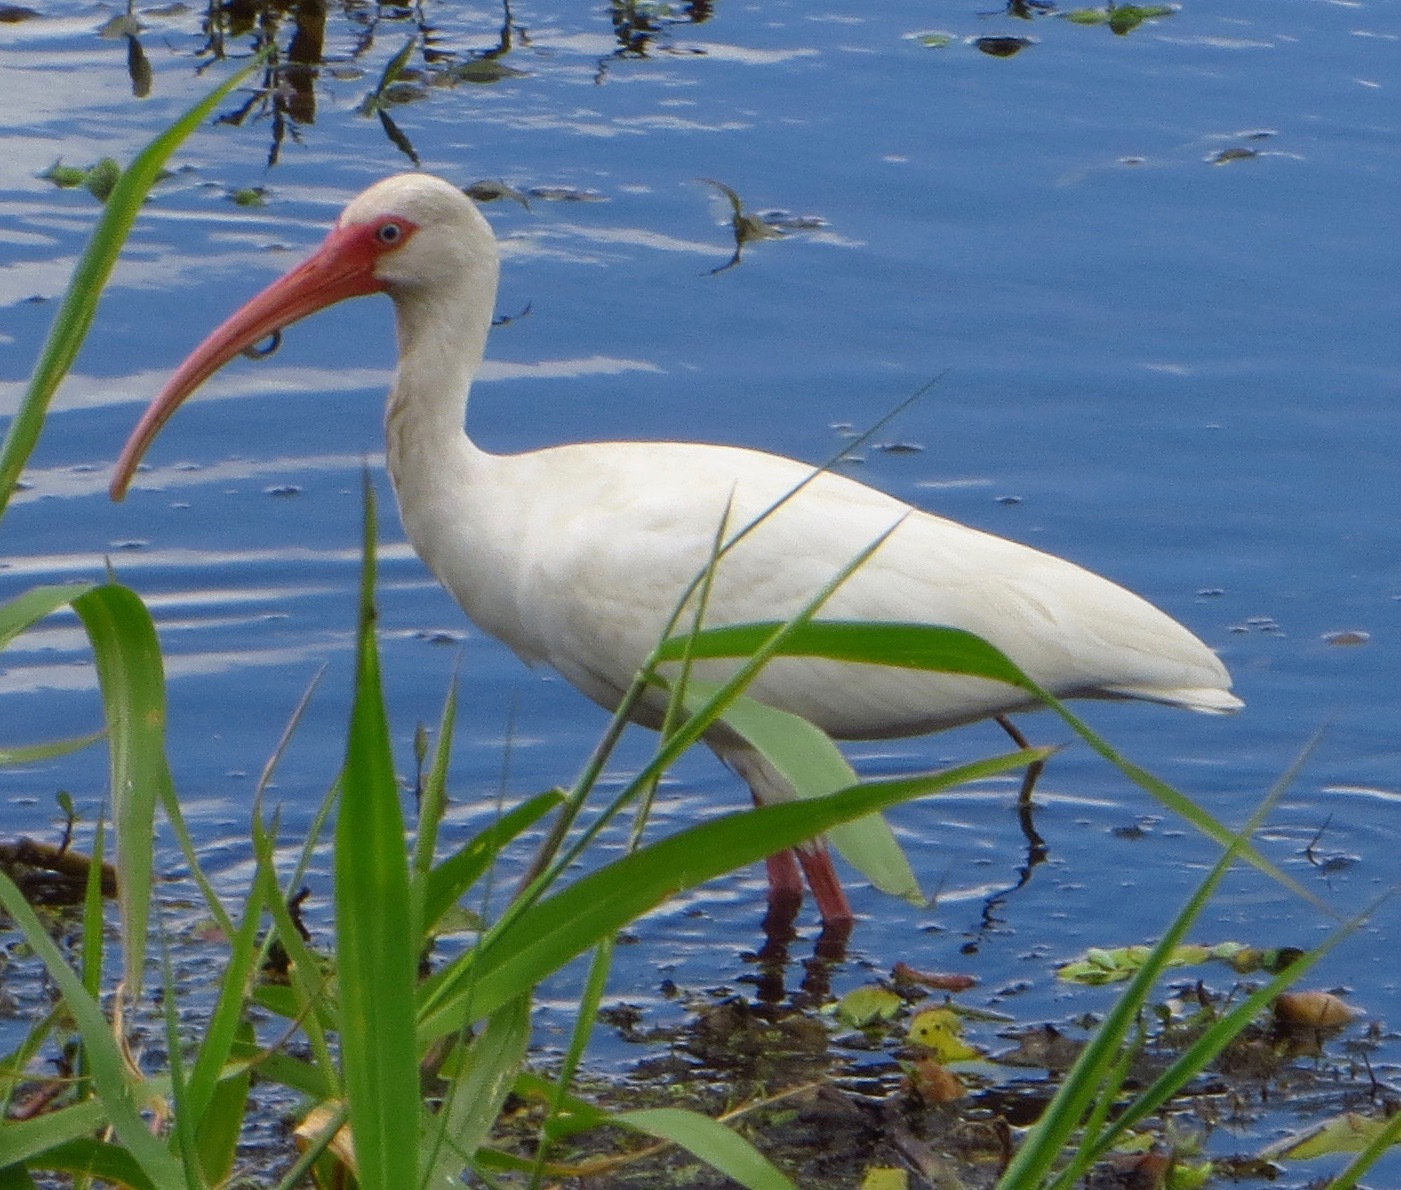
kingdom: Animalia
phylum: Chordata
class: Aves
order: Pelecaniformes
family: Threskiornithidae
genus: Eudocimus
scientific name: Eudocimus albus
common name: White ibis
